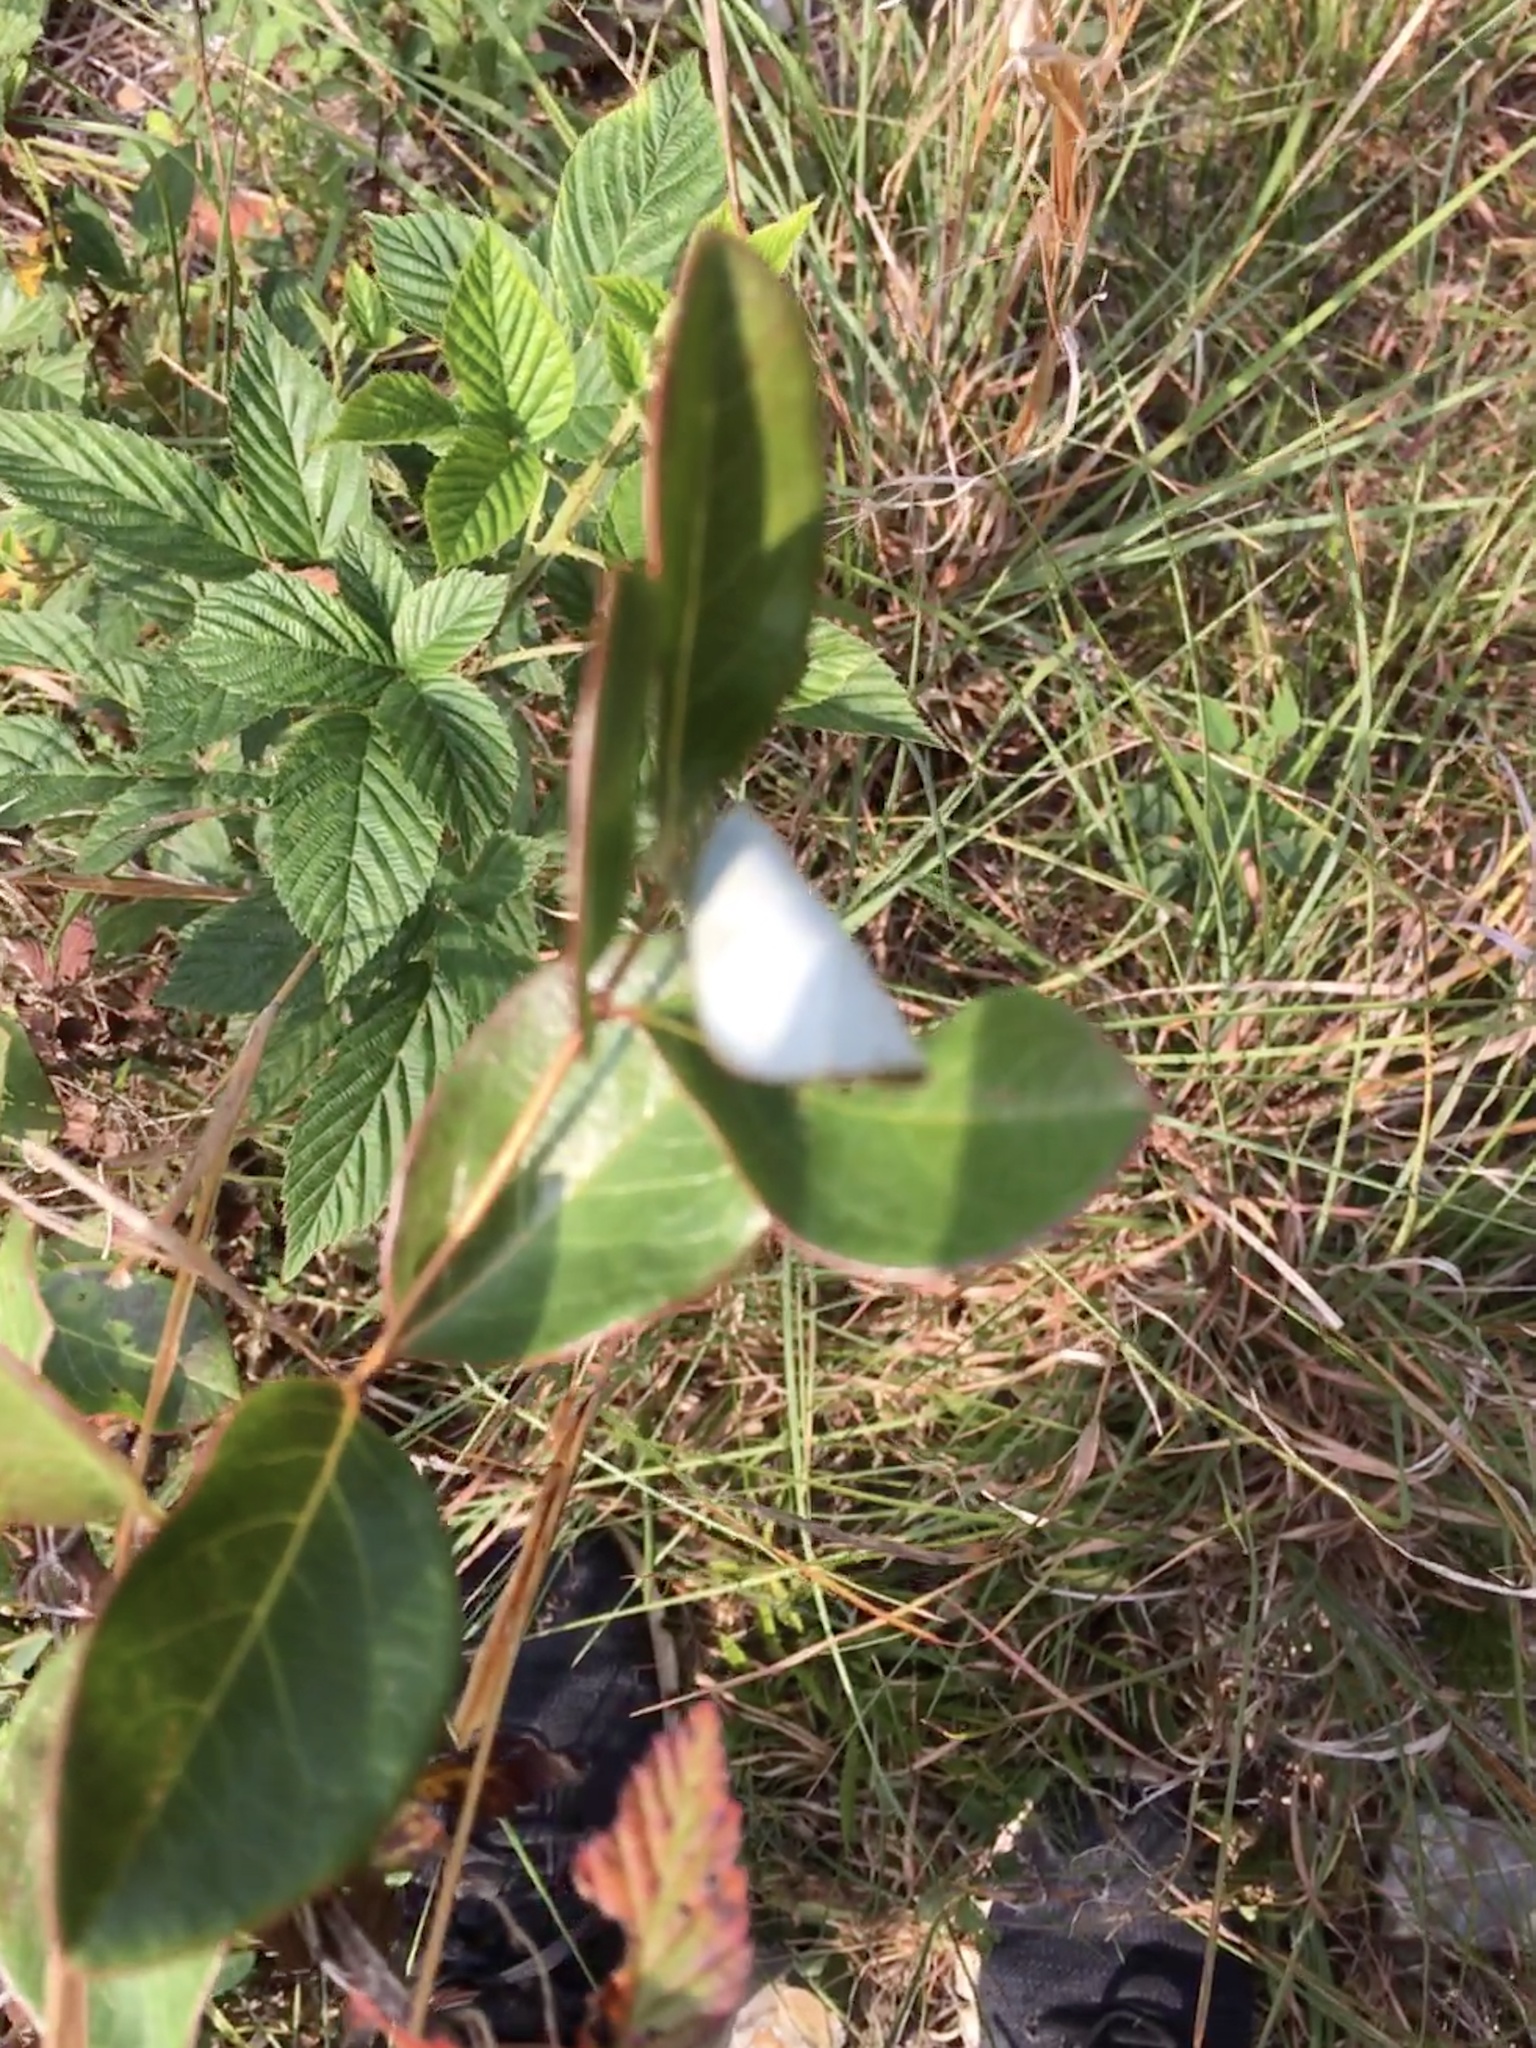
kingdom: Plantae
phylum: Tracheophyta
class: Magnoliopsida
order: Dipsacales
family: Caprifoliaceae
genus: Lonicera
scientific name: Lonicera sempervirens
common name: Coral honeysuckle
